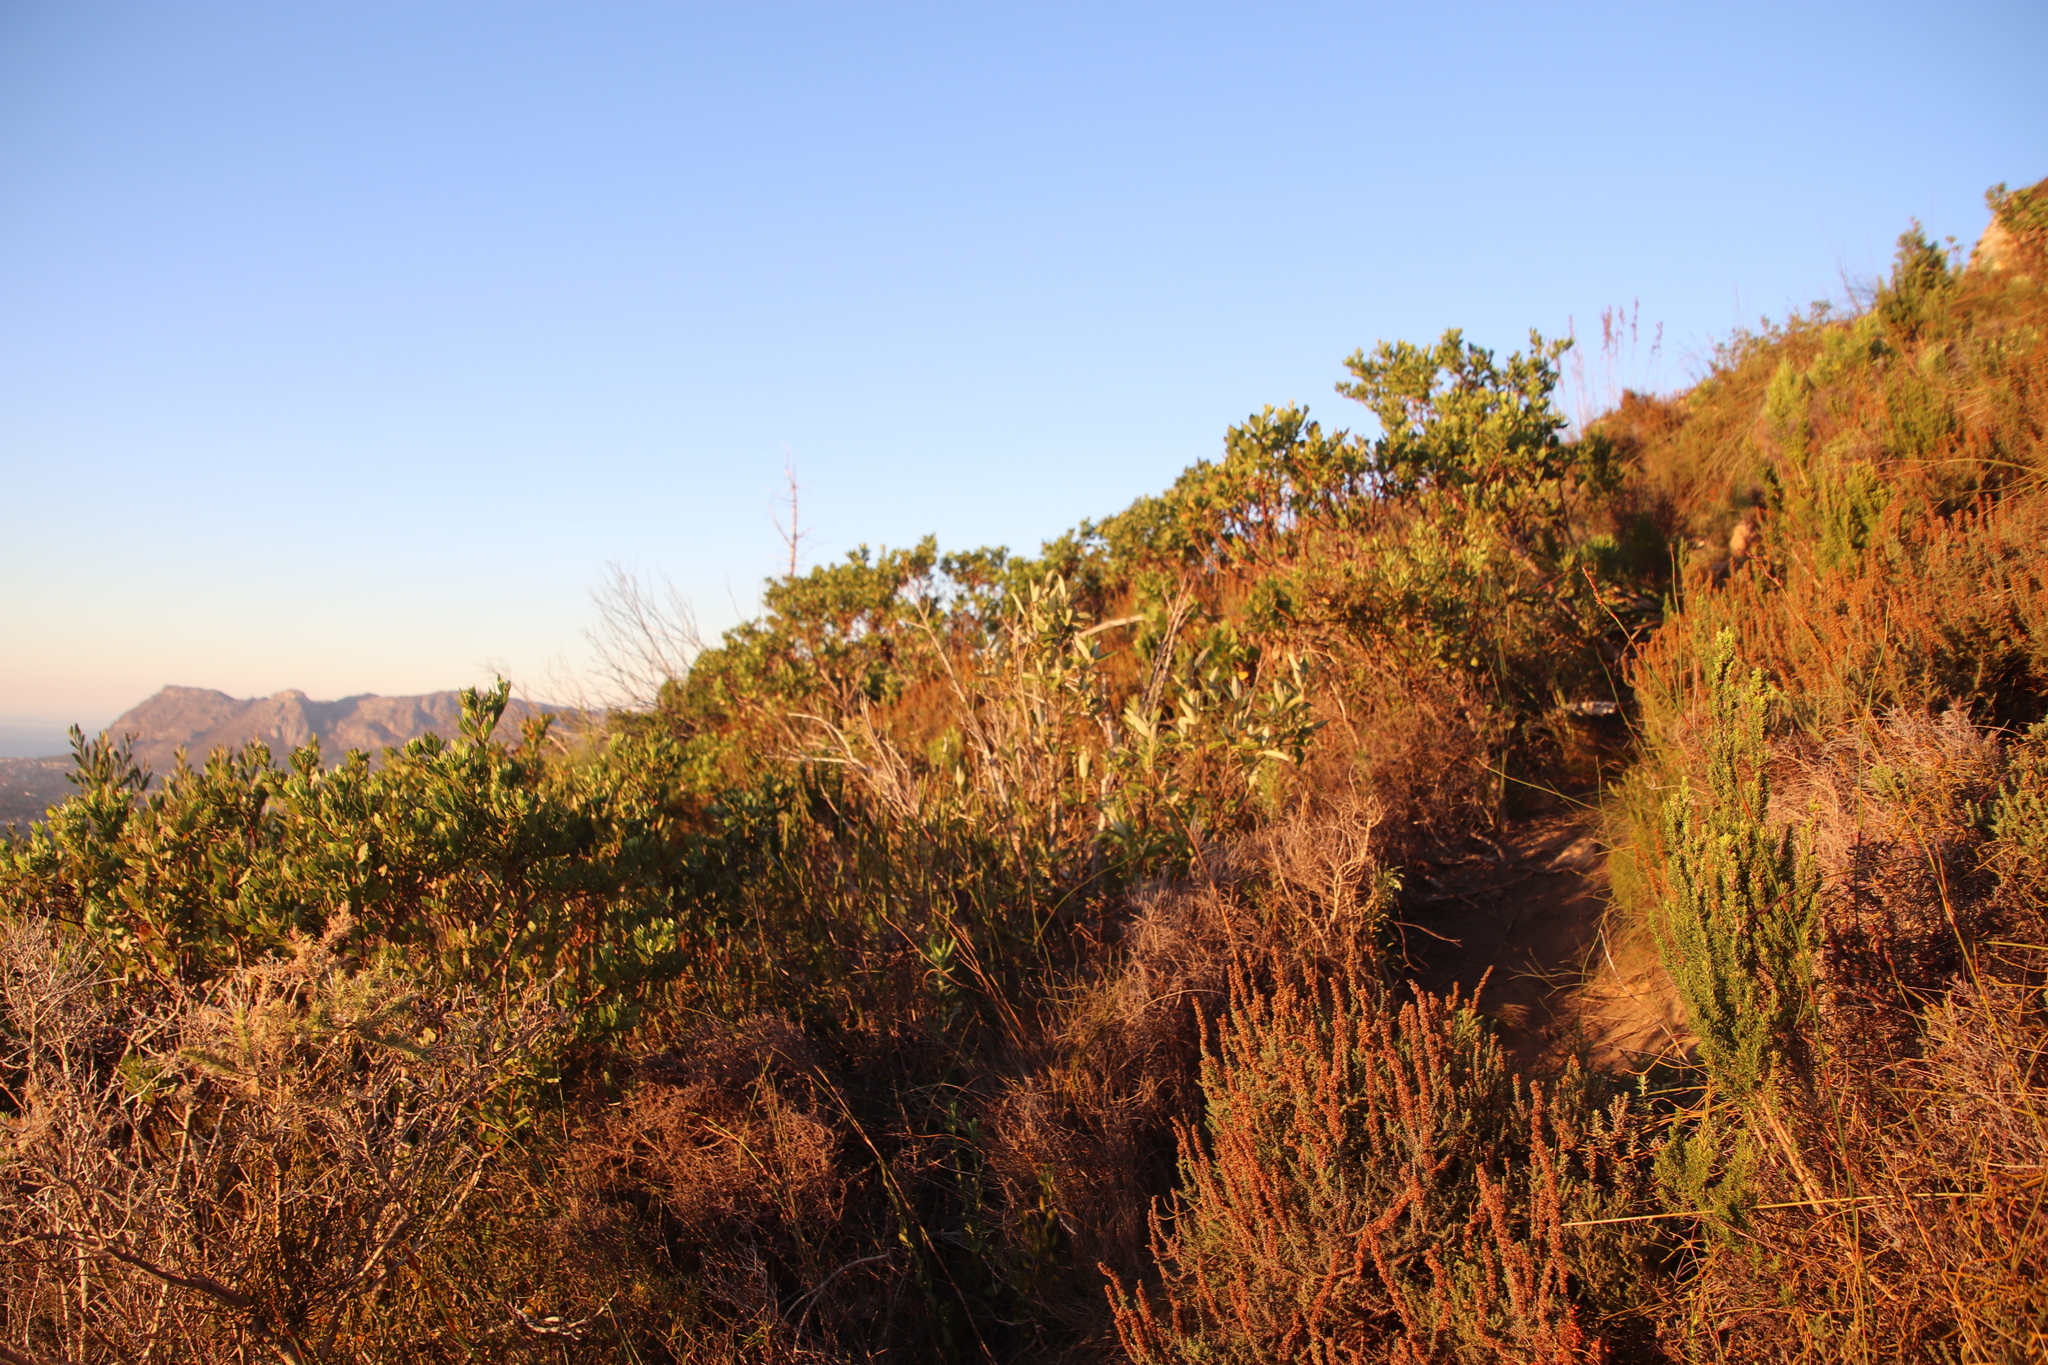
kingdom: Plantae
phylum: Tracheophyta
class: Magnoliopsida
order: Malpighiales
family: Achariaceae
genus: Kiggelaria
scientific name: Kiggelaria africana
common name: Wild peach
